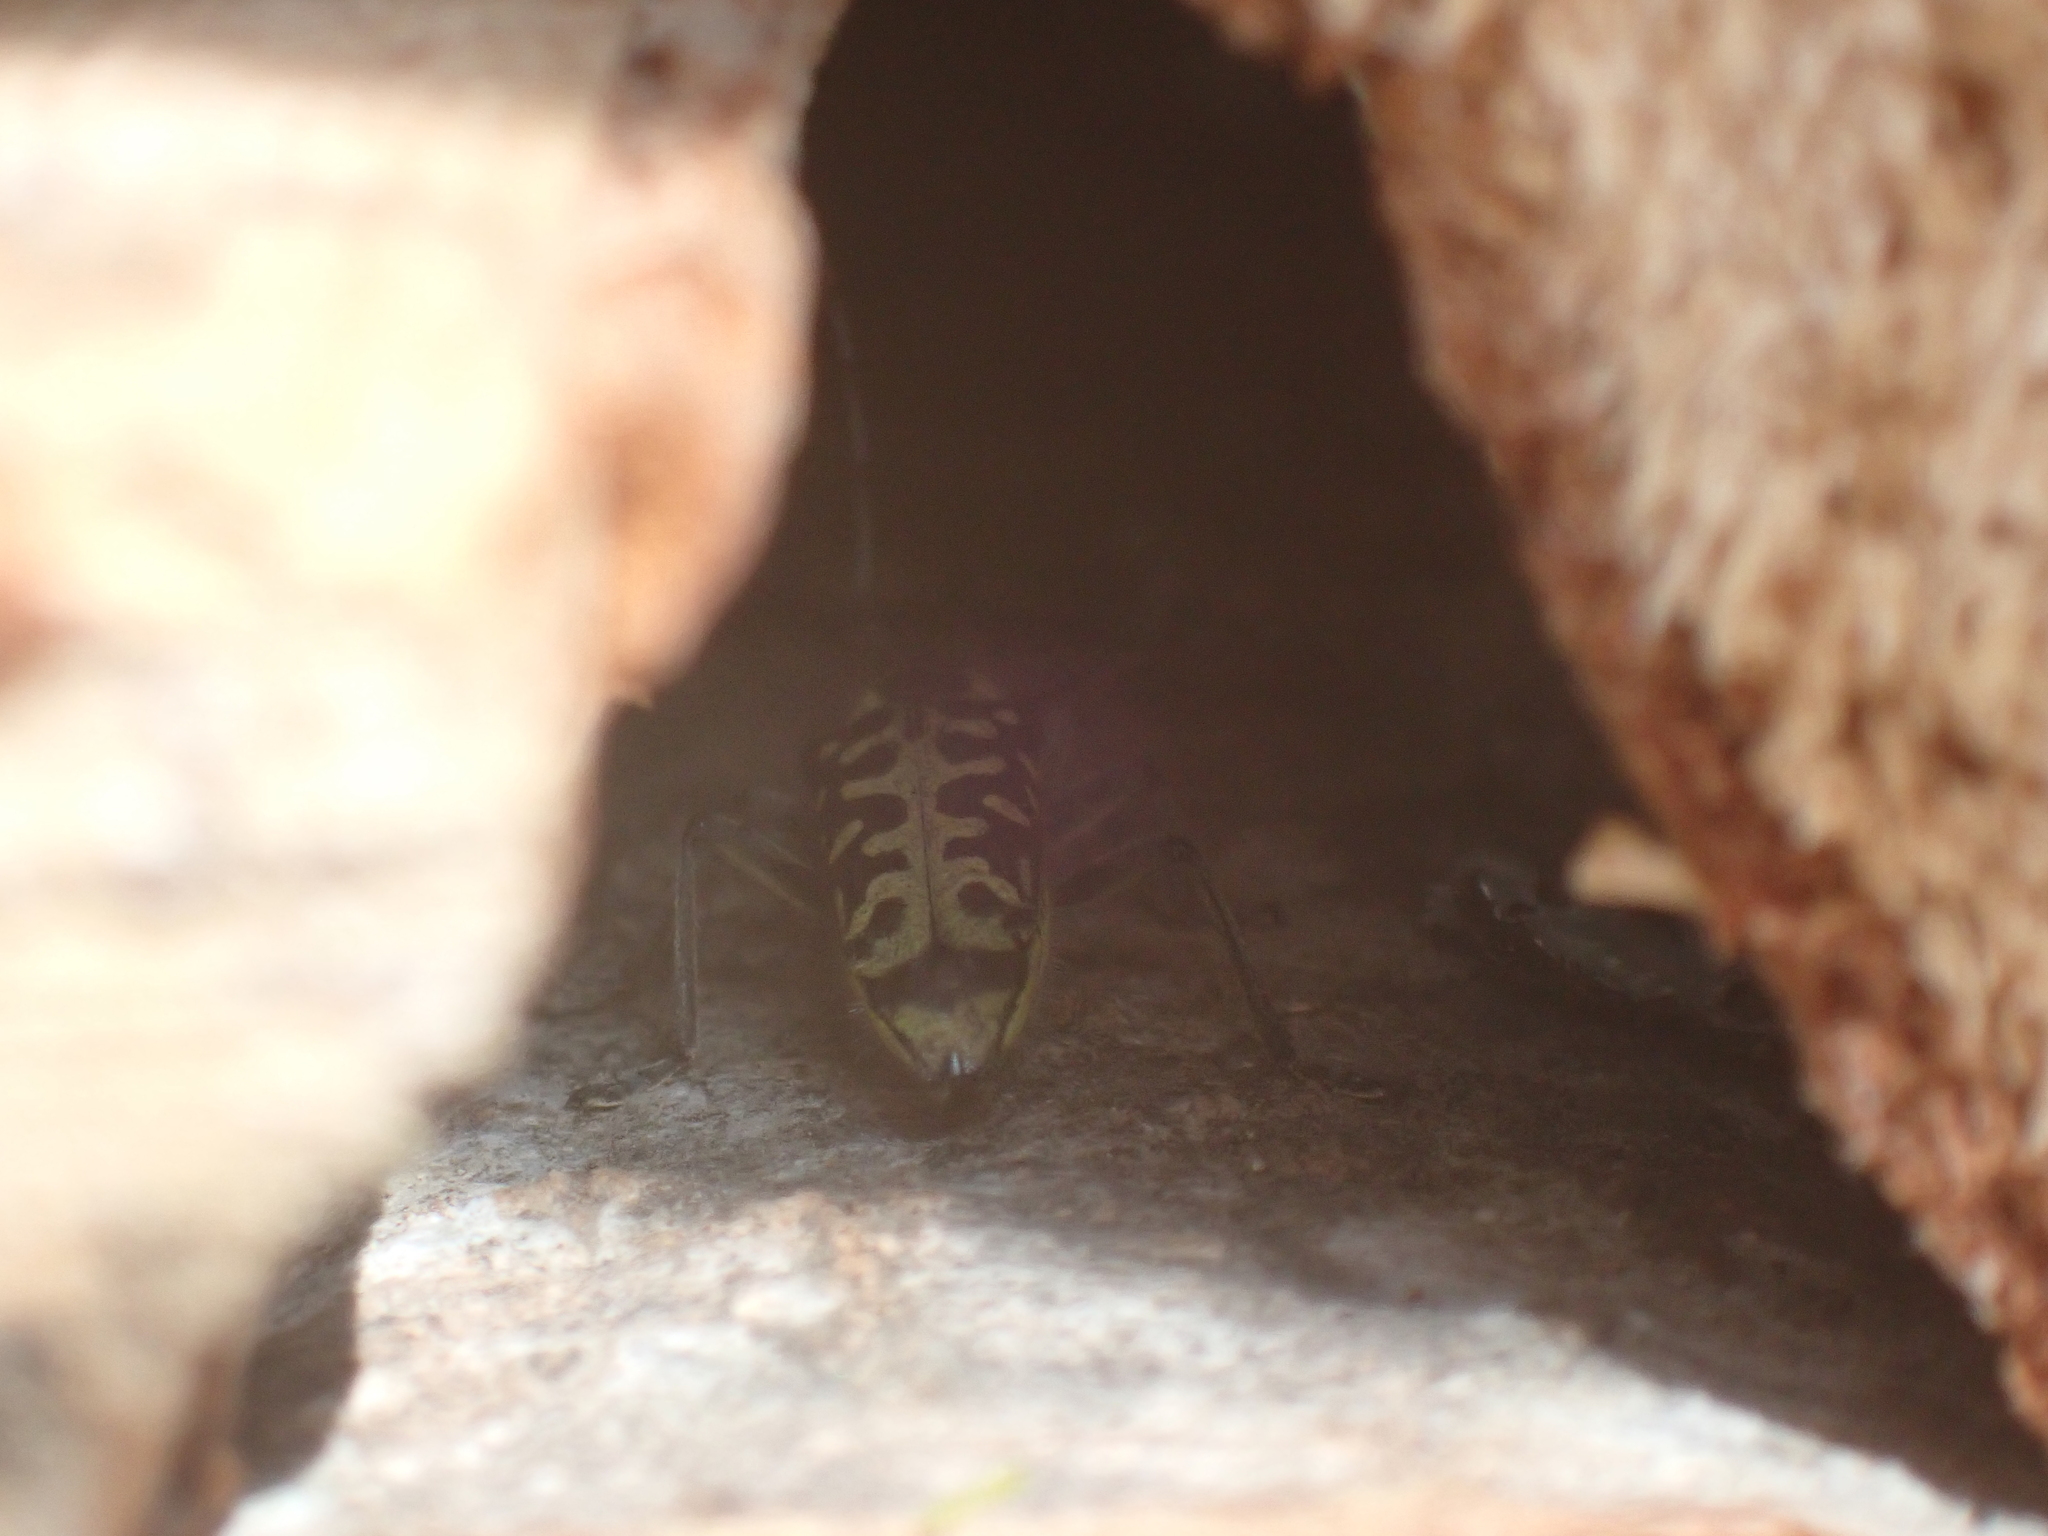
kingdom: Animalia
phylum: Arthropoda
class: Insecta
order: Coleoptera
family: Cerambycidae
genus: Saperda
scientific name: Saperda scalaris
